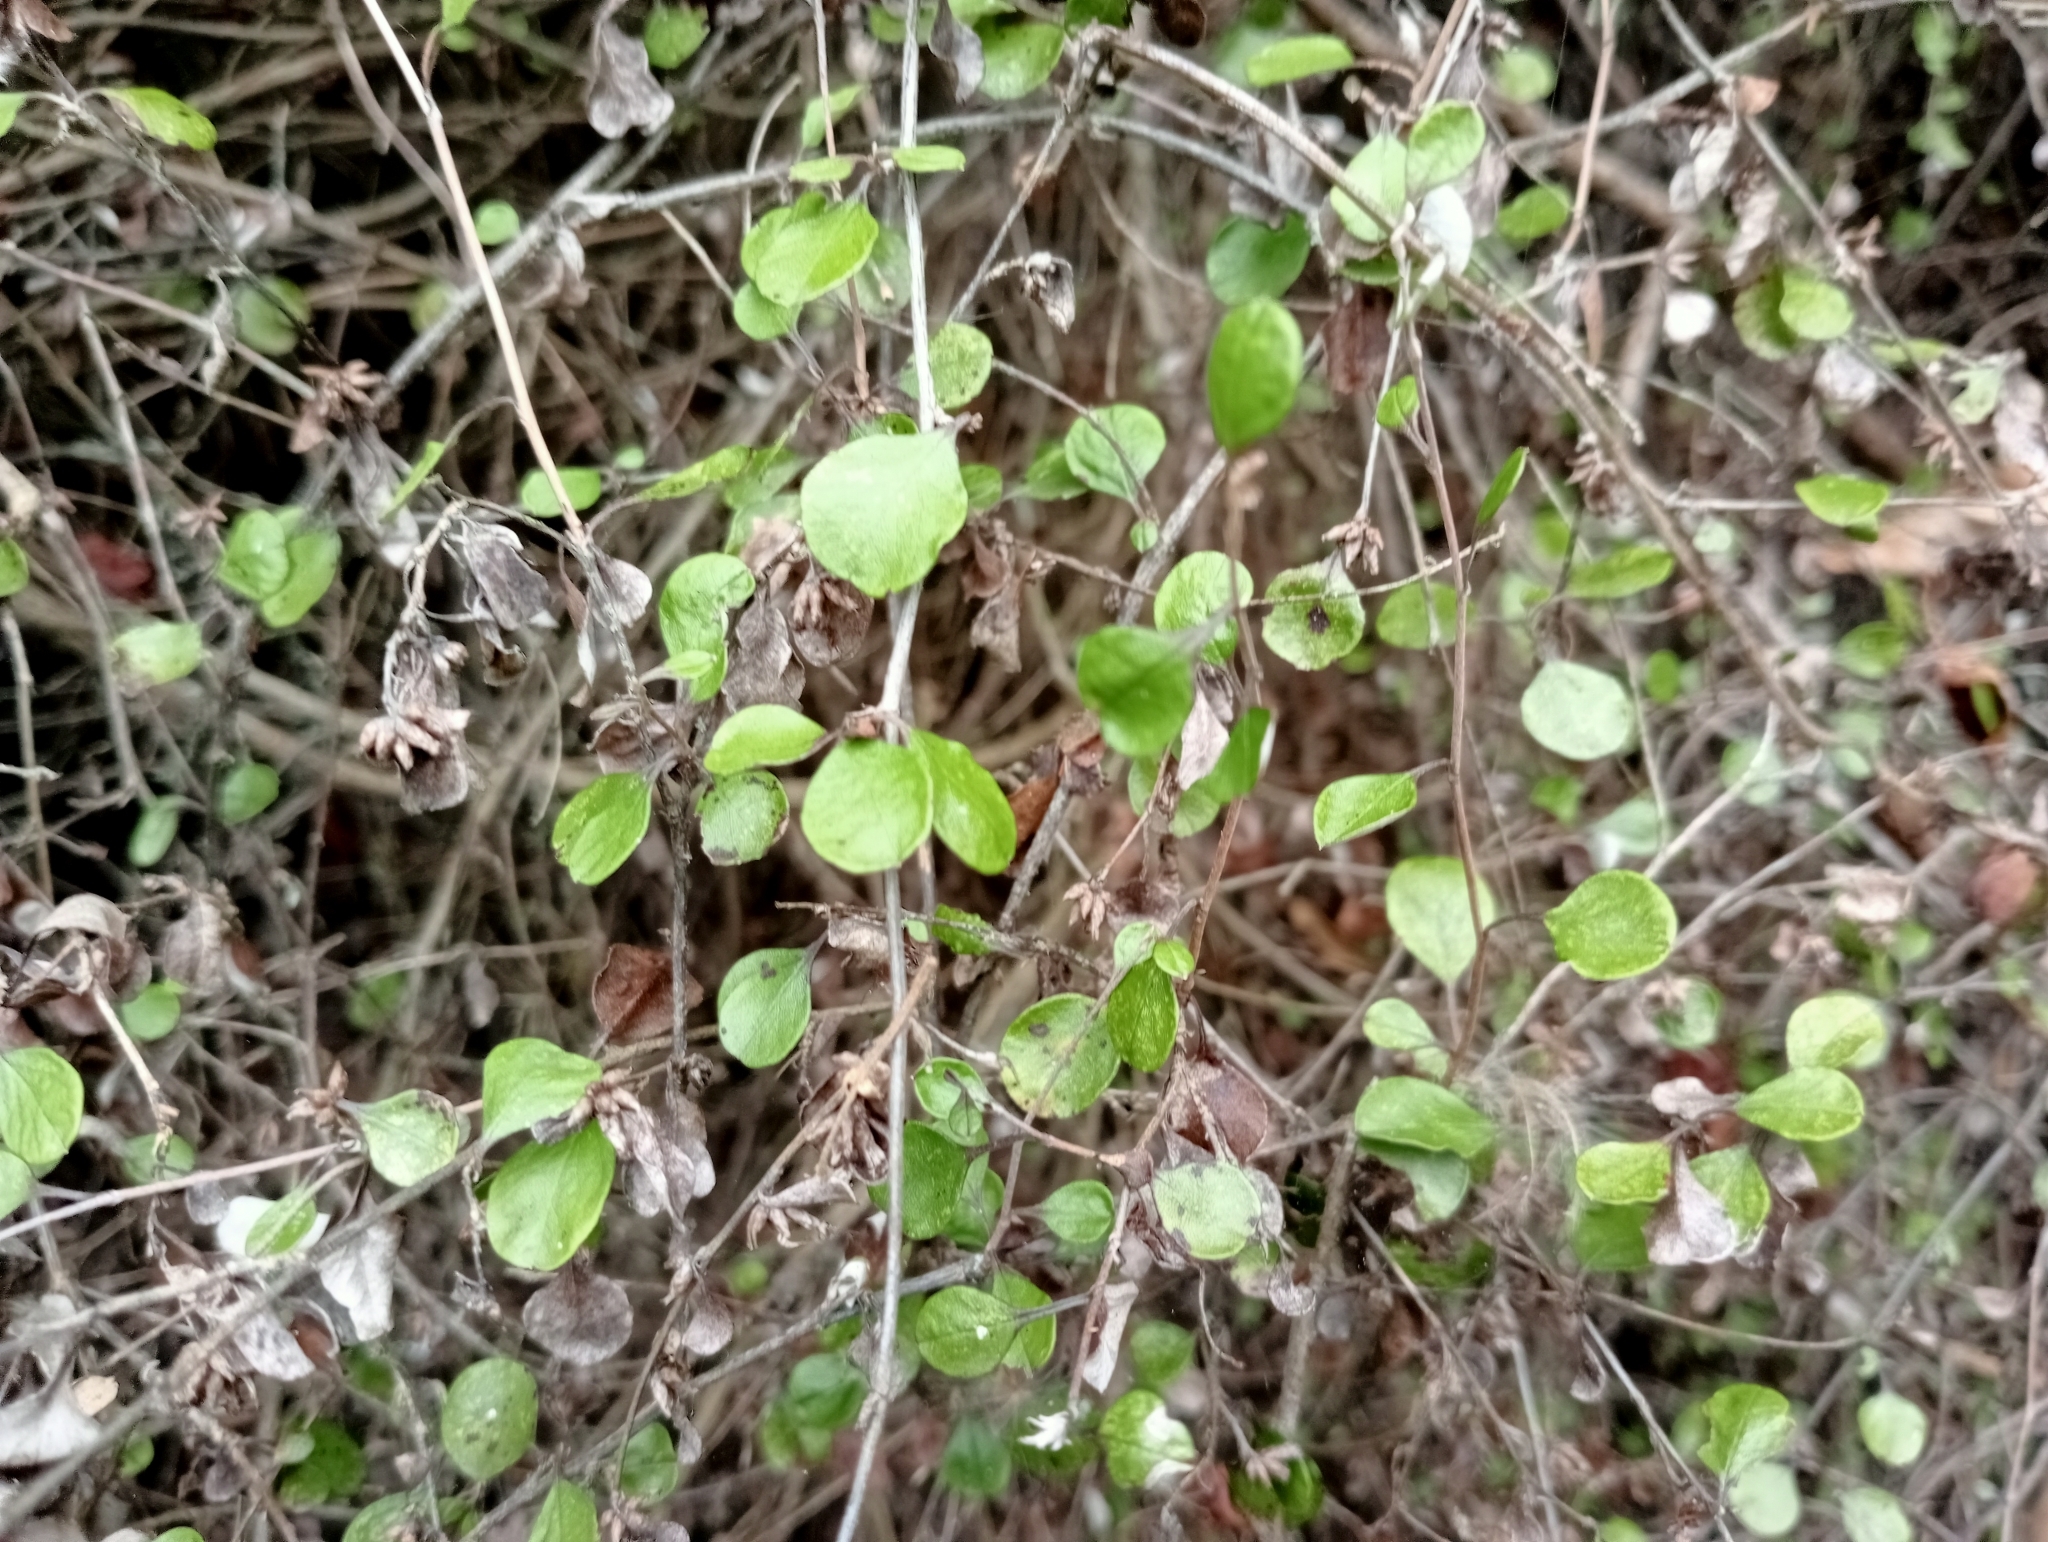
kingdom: Plantae
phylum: Tracheophyta
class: Magnoliopsida
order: Asterales
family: Asteraceae
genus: Ozothamnus
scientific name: Ozothamnus glomeratus
